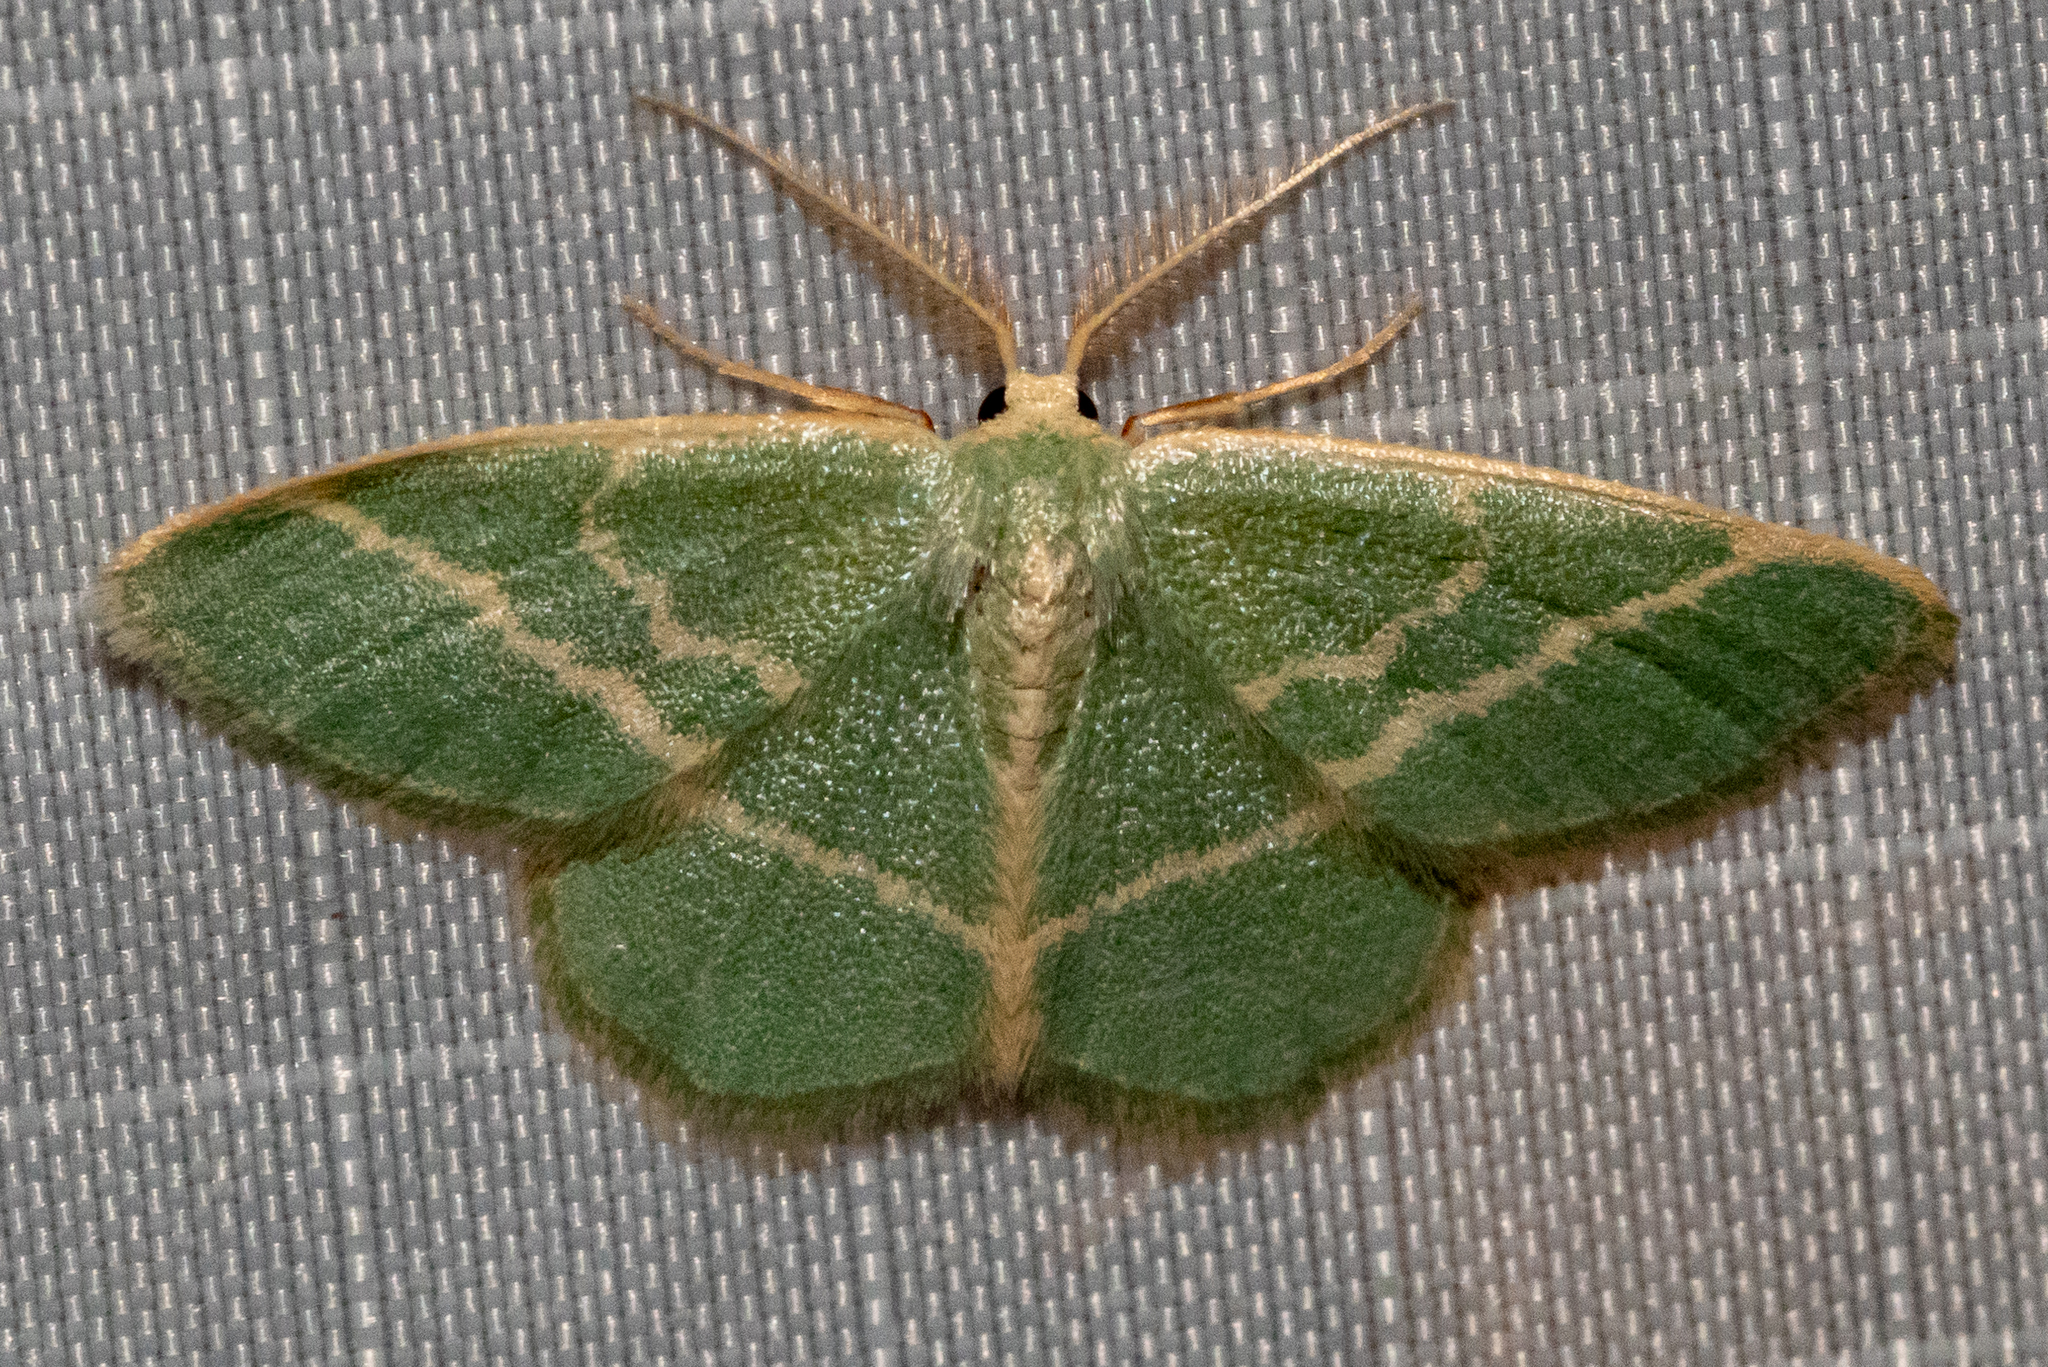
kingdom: Animalia
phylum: Arthropoda
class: Insecta
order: Lepidoptera
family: Geometridae
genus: Chlorochlamys
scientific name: Chlorochlamys chloroleucaria
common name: Blackberry looper
